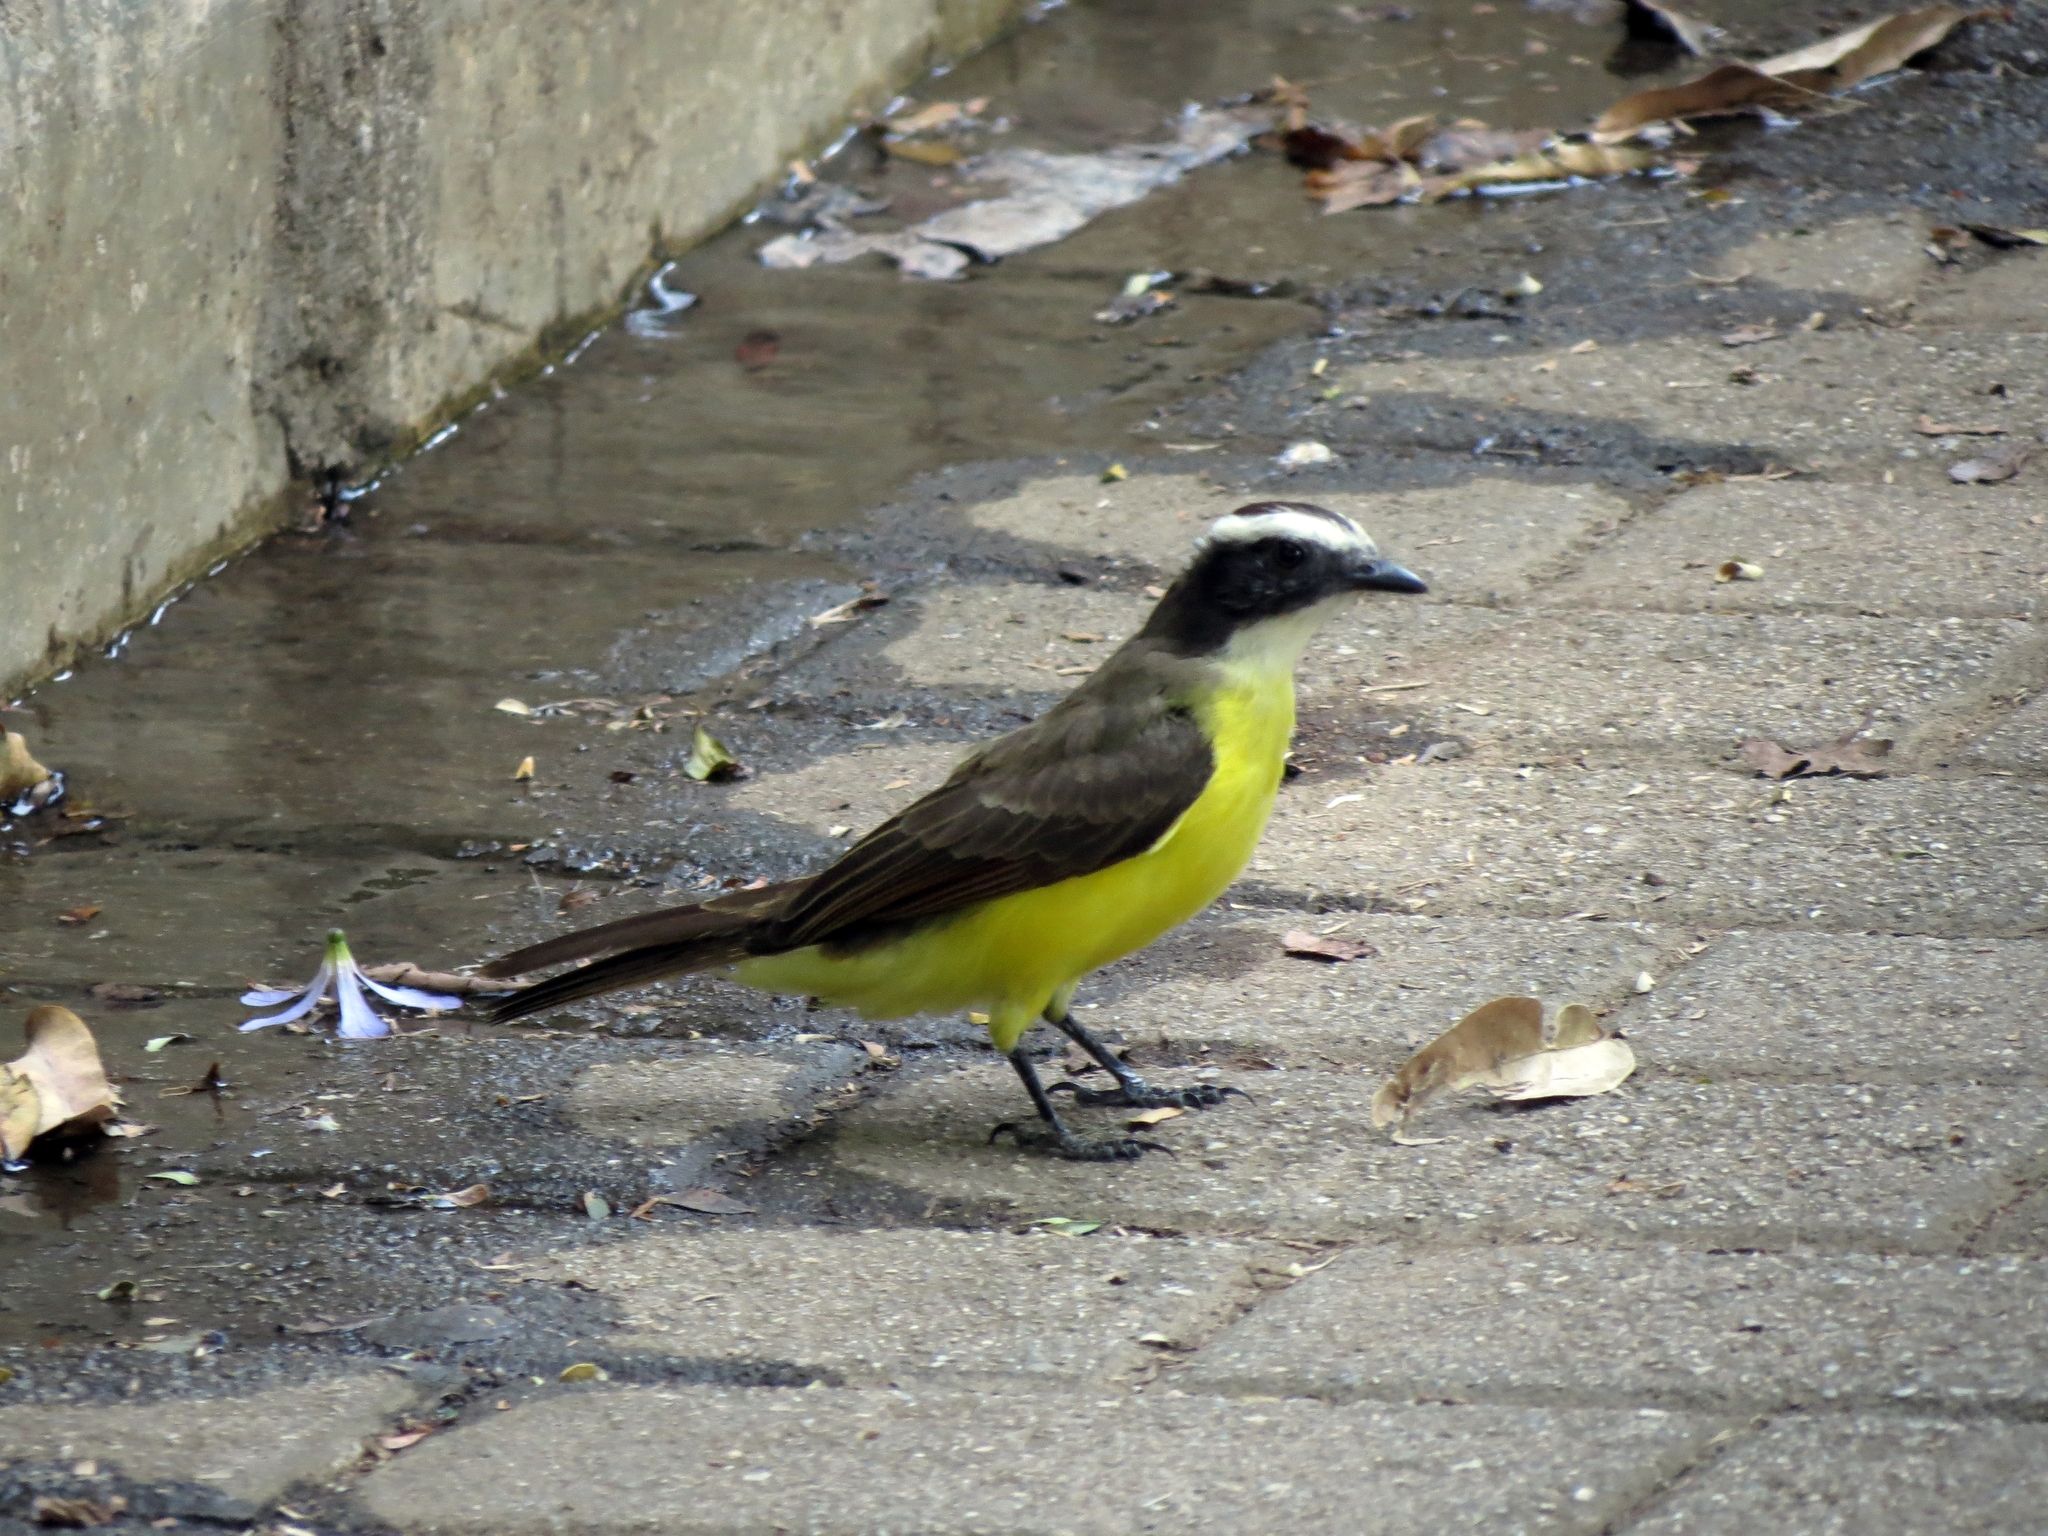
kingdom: Animalia
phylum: Chordata
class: Aves
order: Passeriformes
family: Tyrannidae
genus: Myiozetetes
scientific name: Myiozetetes cayanensis
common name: Rusty-margined flycatcher
